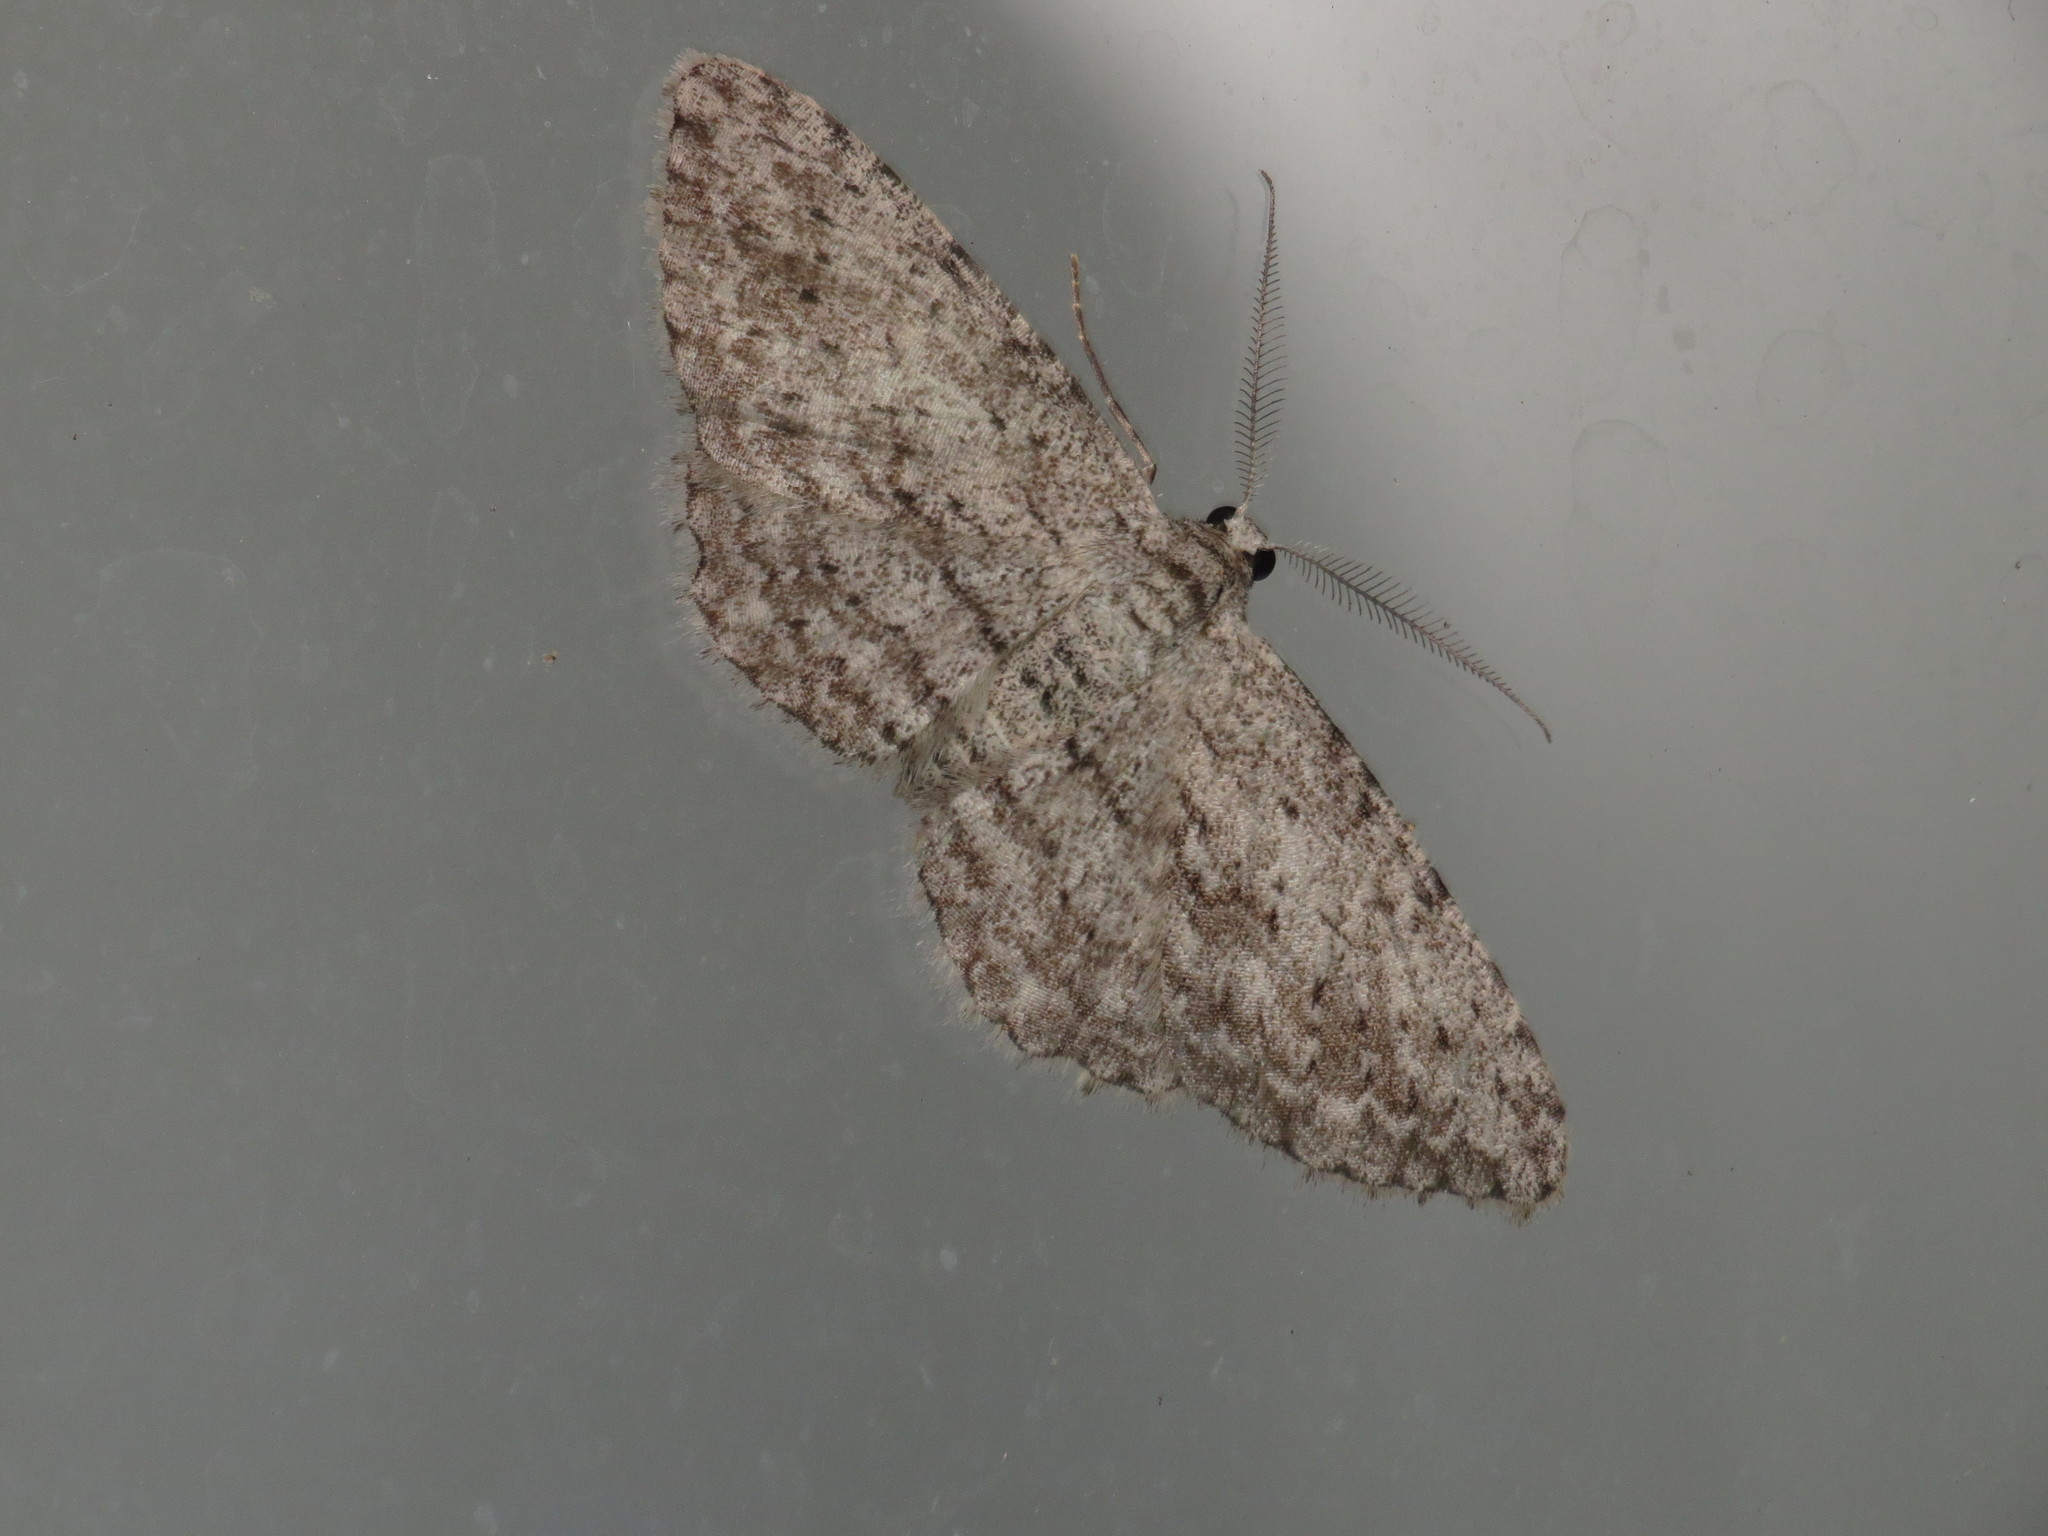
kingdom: Animalia
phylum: Arthropoda
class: Insecta
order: Lepidoptera
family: Geometridae
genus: Phelotis
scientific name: Phelotis cognata
